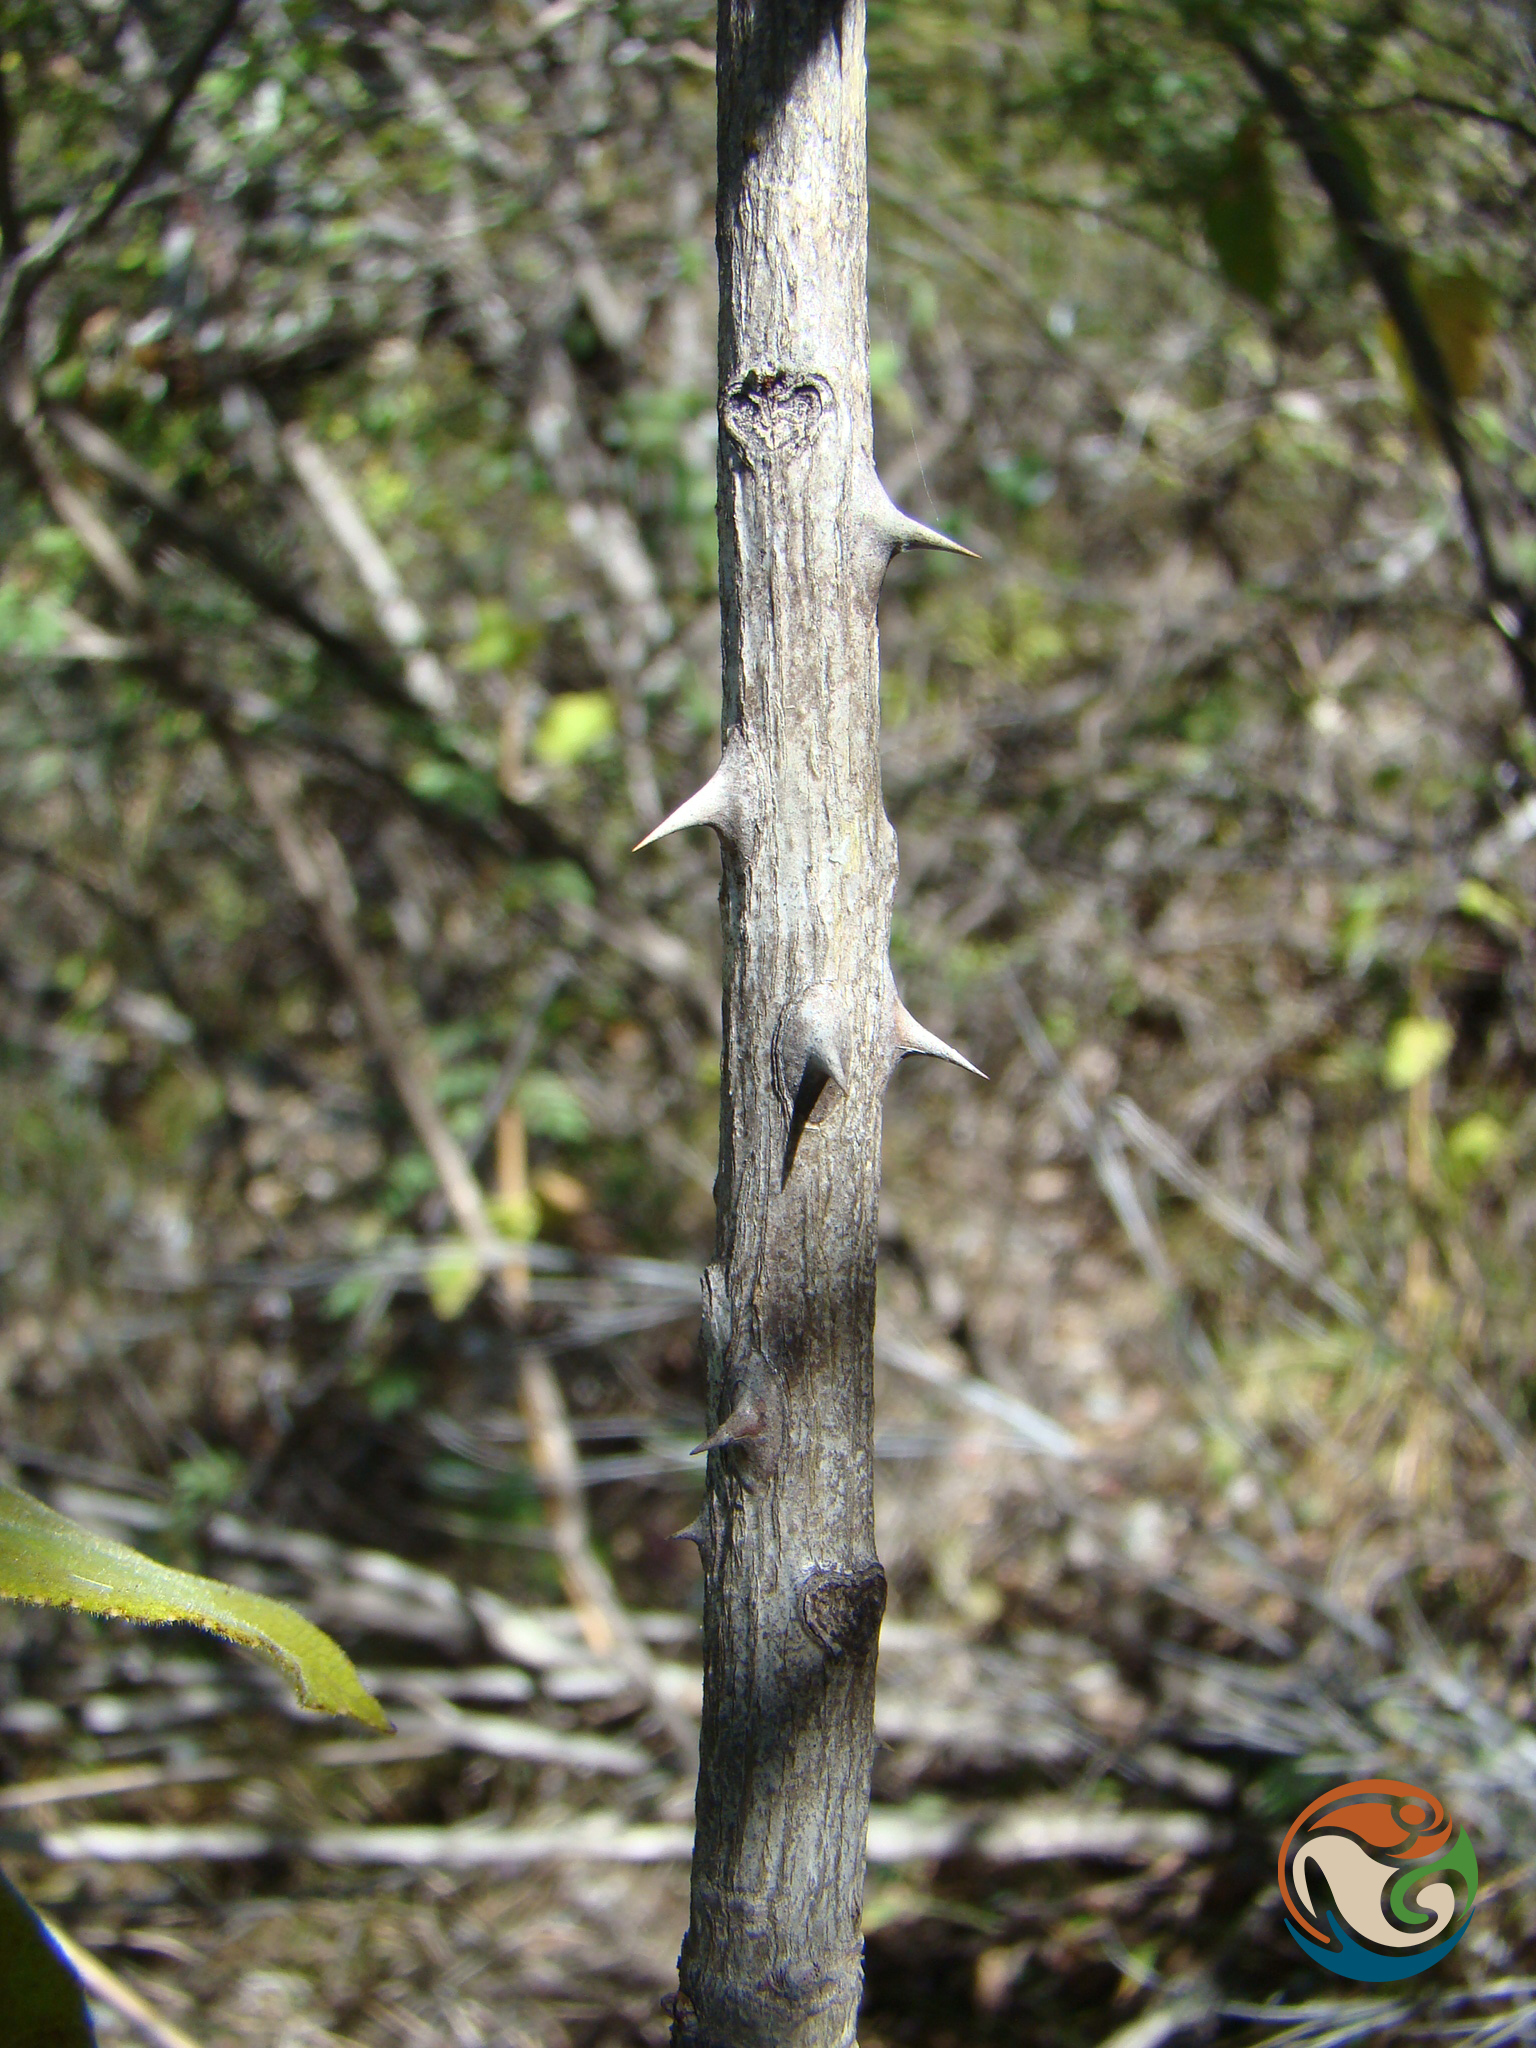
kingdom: Plantae
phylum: Tracheophyta
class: Magnoliopsida
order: Sapindales
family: Rutaceae
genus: Zanthoxylum
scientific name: Zanthoxylum melanostictum
